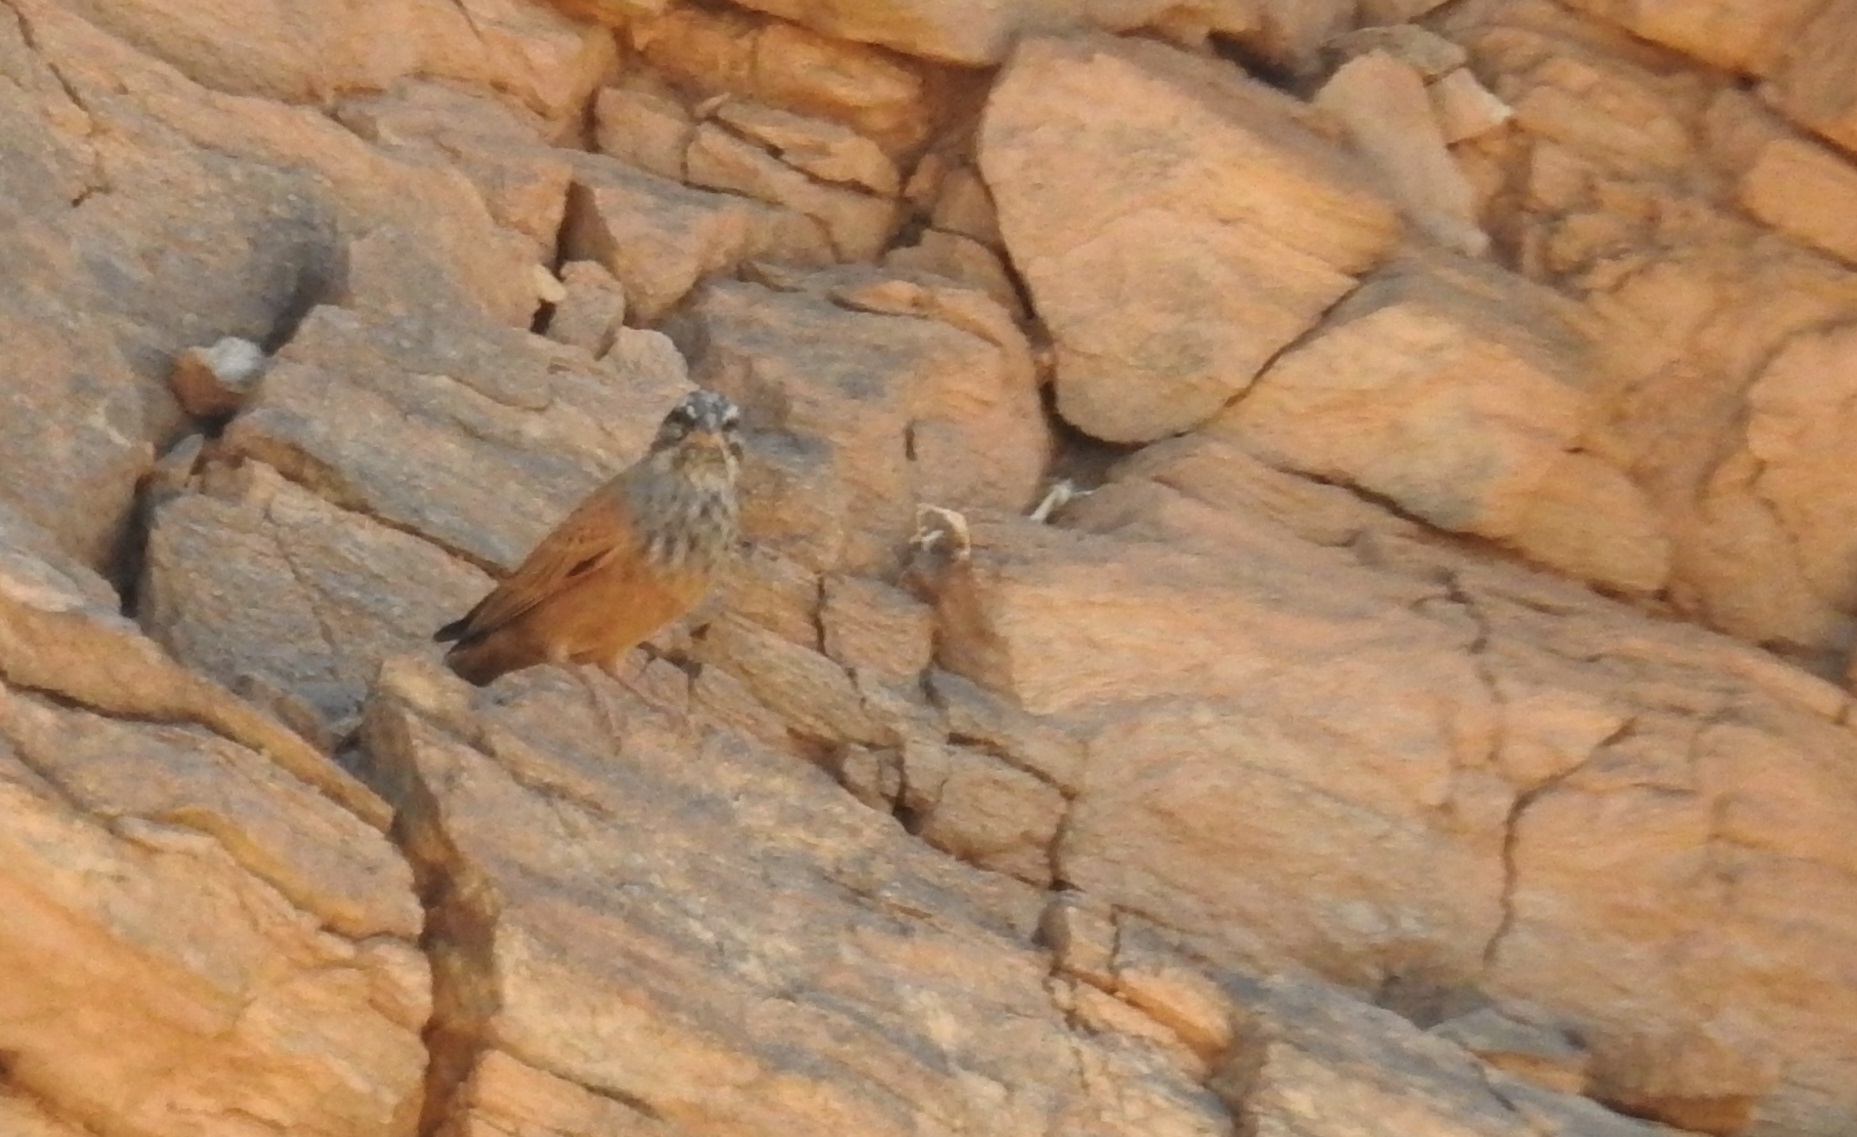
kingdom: Animalia
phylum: Chordata
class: Aves
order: Passeriformes
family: Emberizidae
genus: Emberiza
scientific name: Emberiza sahari
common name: House bunting
